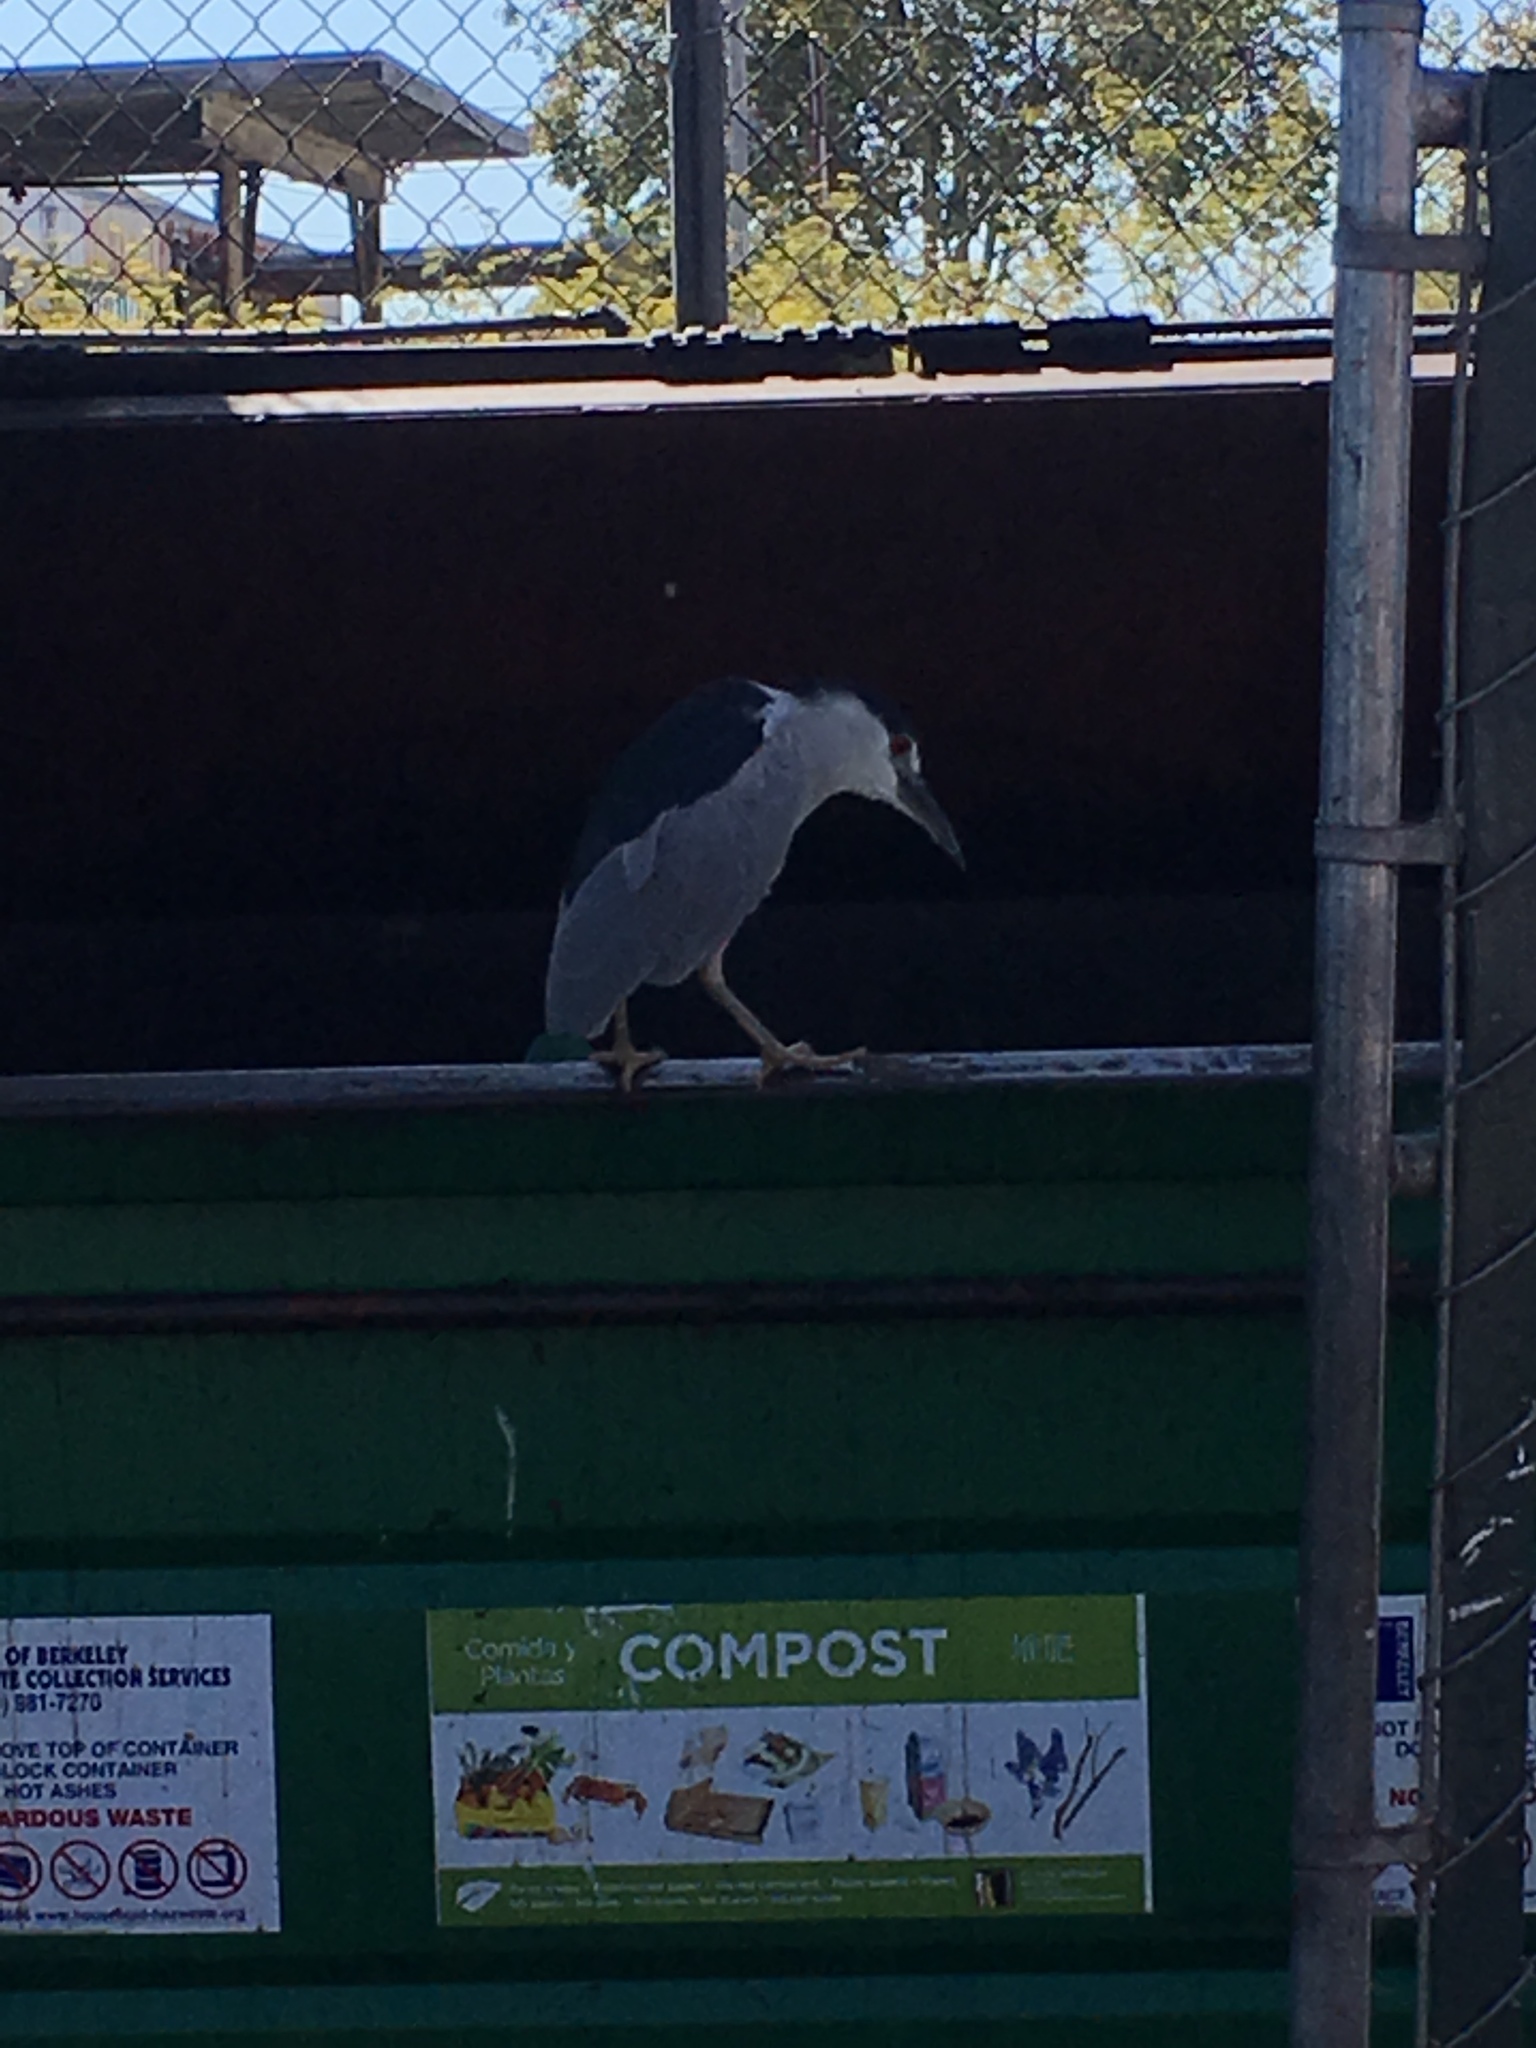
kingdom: Animalia
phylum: Chordata
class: Aves
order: Pelecaniformes
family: Ardeidae
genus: Nycticorax
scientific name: Nycticorax nycticorax
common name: Black-crowned night heron
